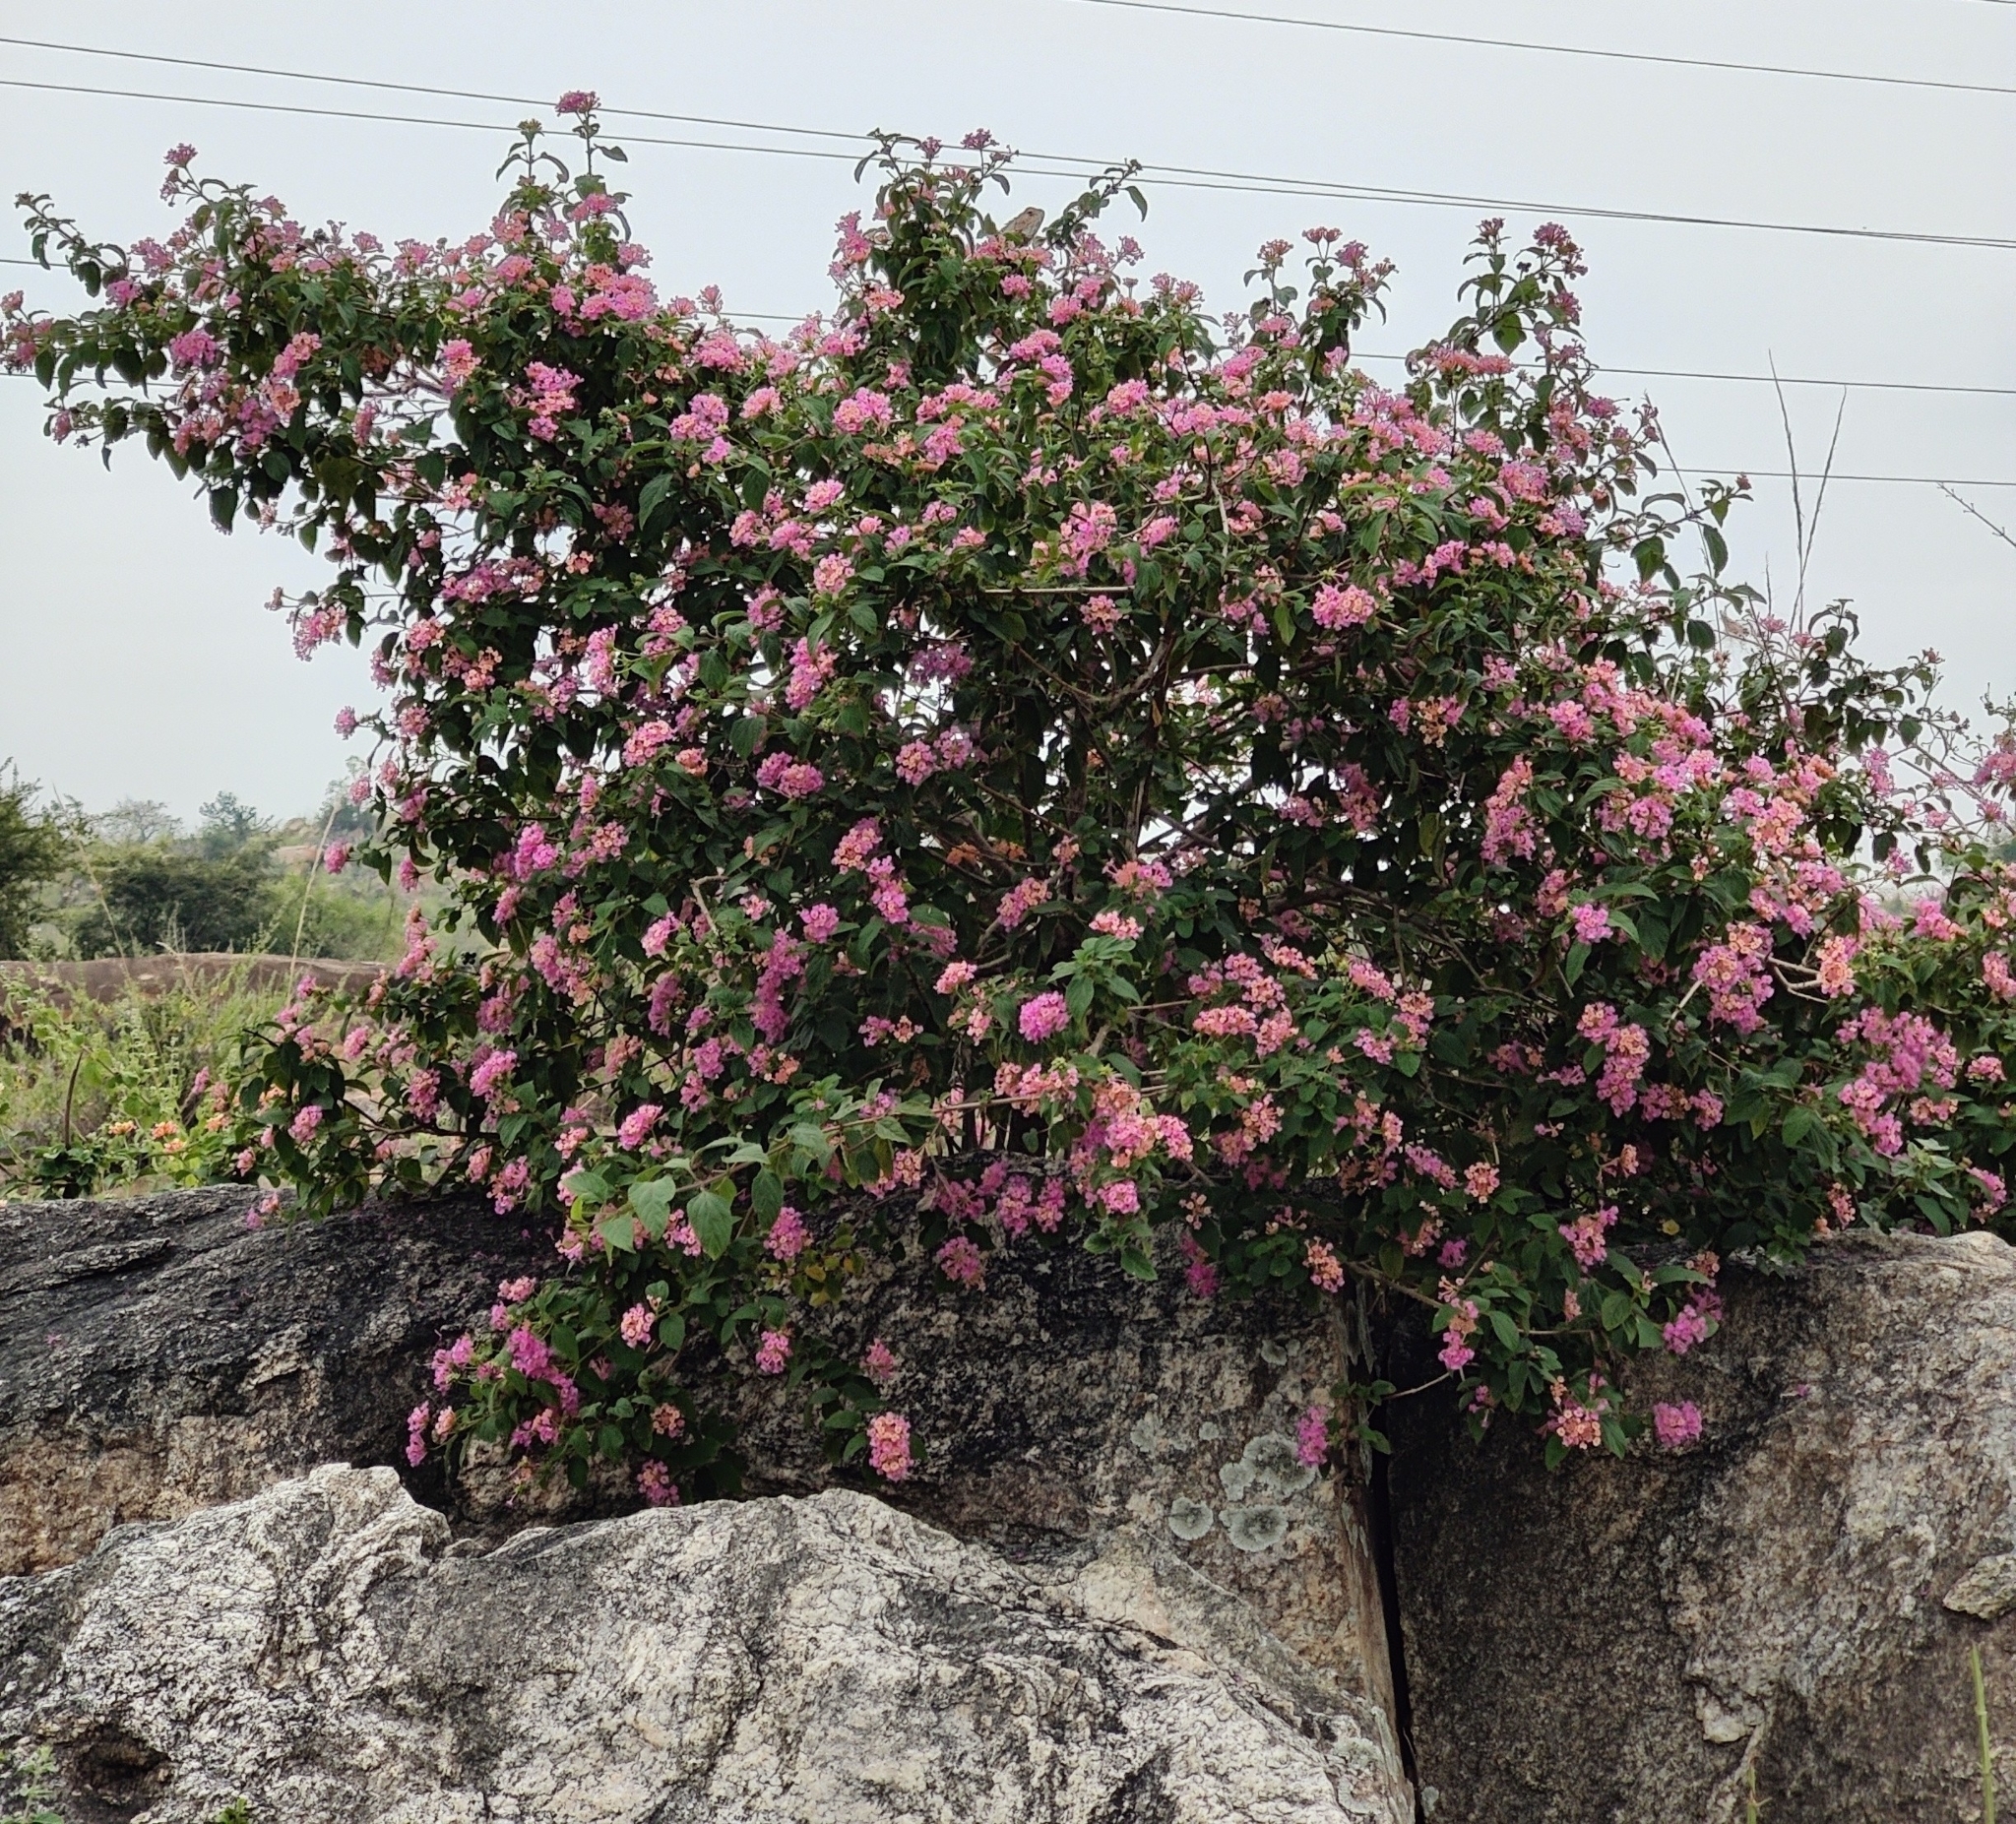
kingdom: Plantae
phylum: Tracheophyta
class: Magnoliopsida
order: Lamiales
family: Verbenaceae
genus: Lantana
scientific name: Lantana camara
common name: Lantana
